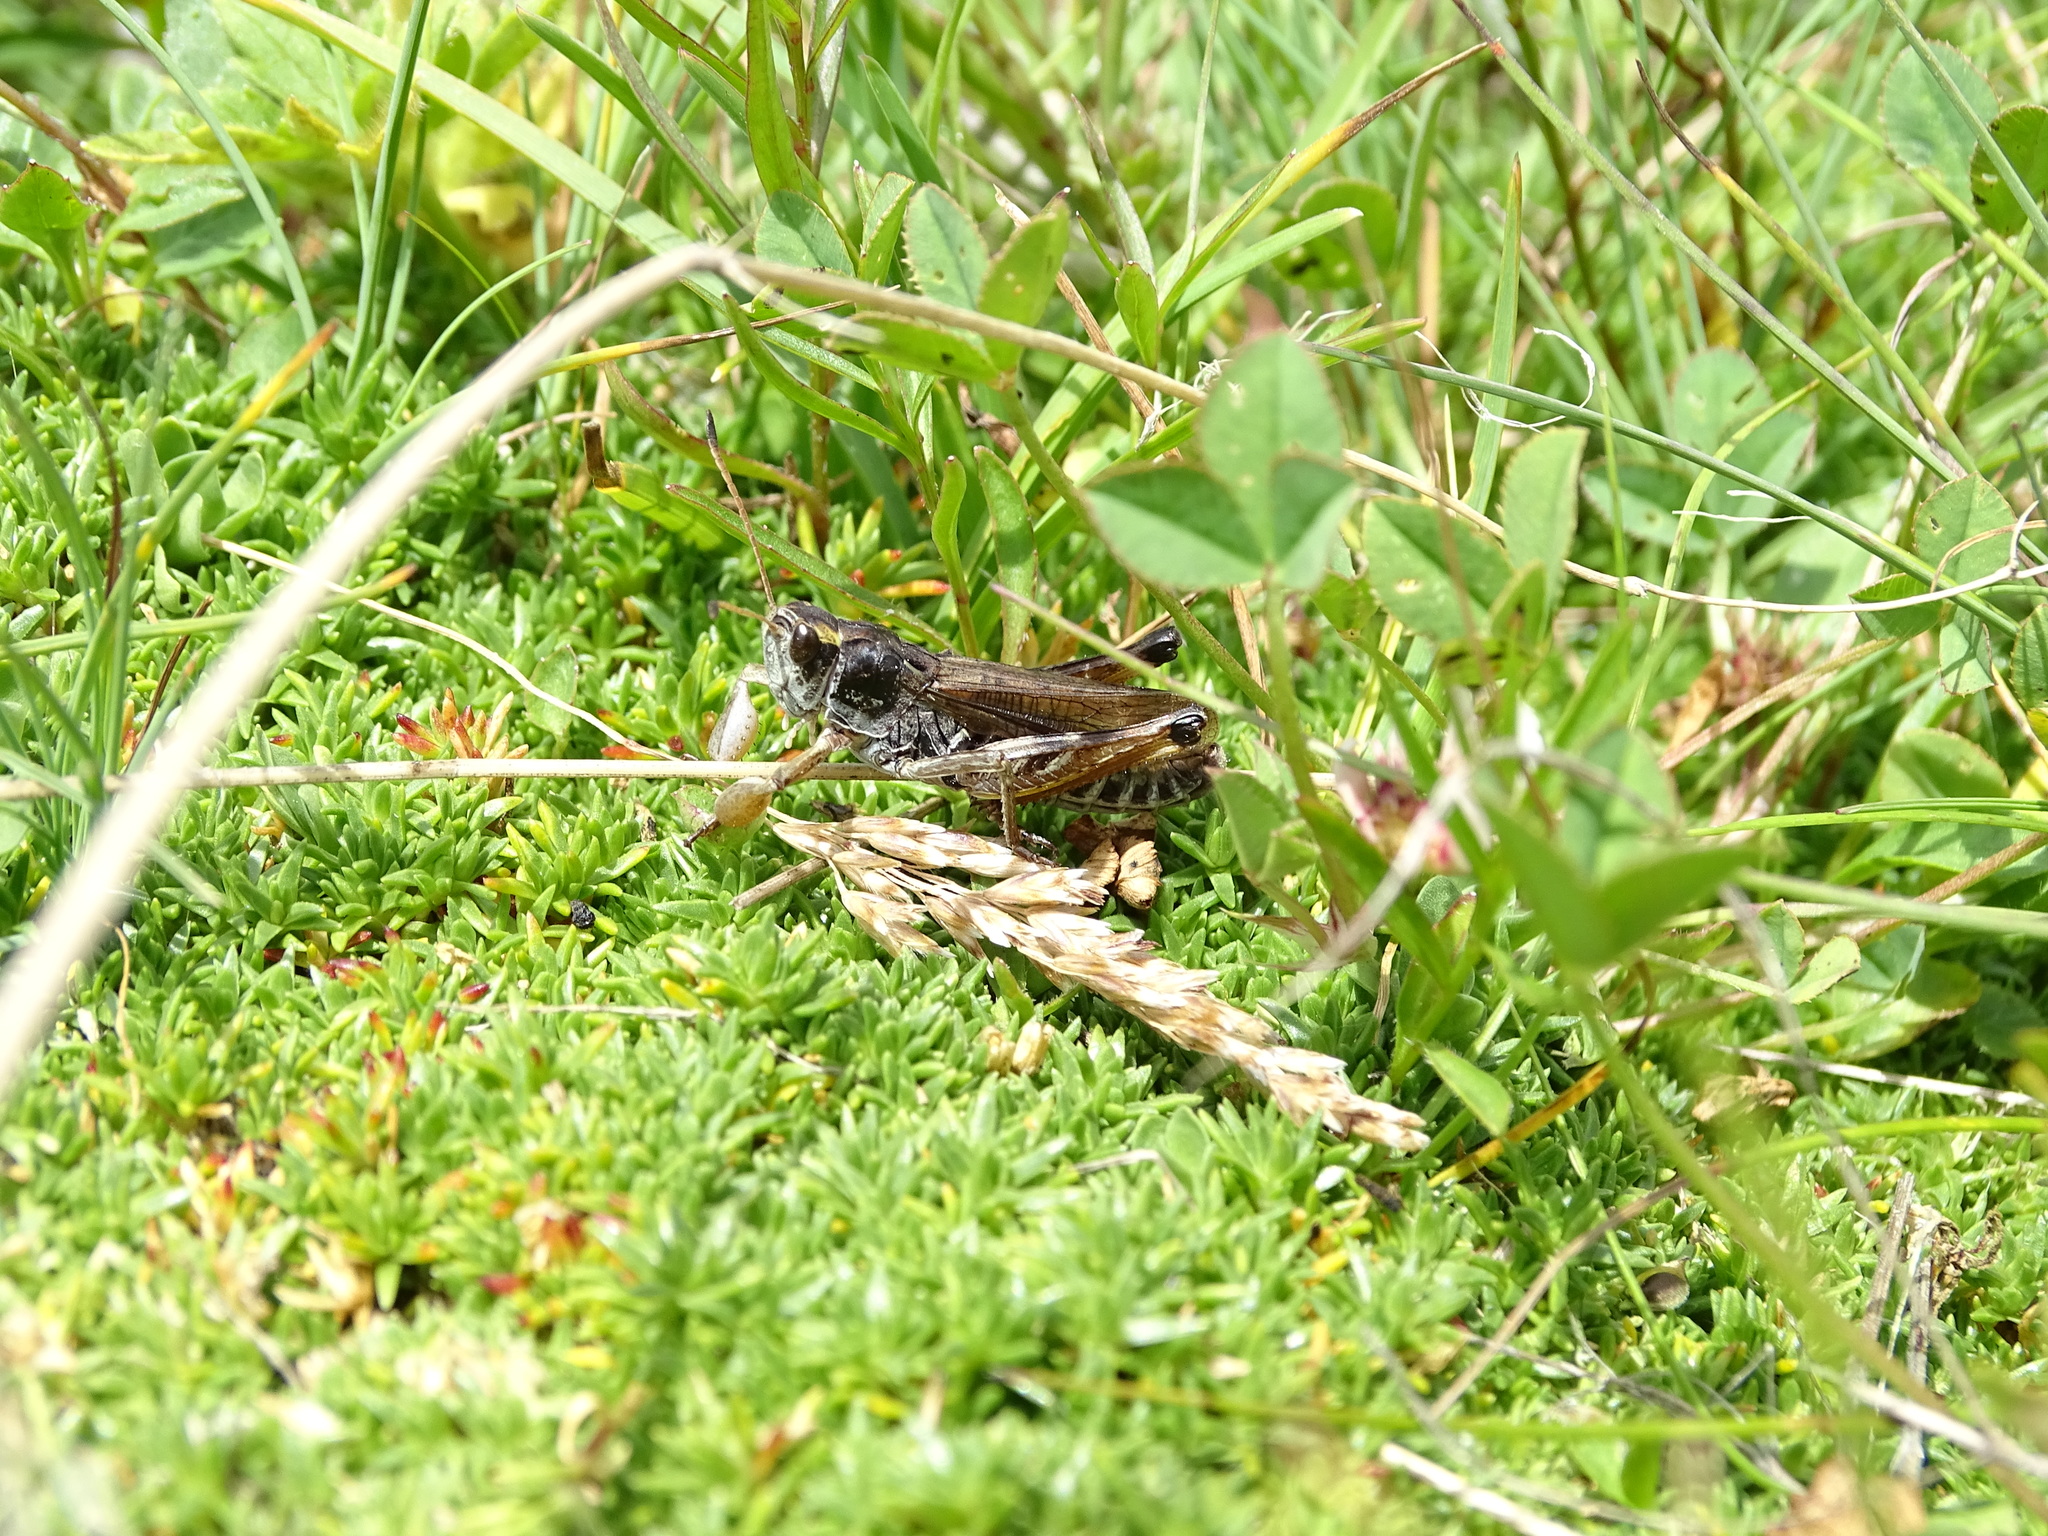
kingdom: Animalia
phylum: Arthropoda
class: Insecta
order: Orthoptera
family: Acrididae
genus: Gomphocerus
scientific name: Gomphocerus sibiricus
